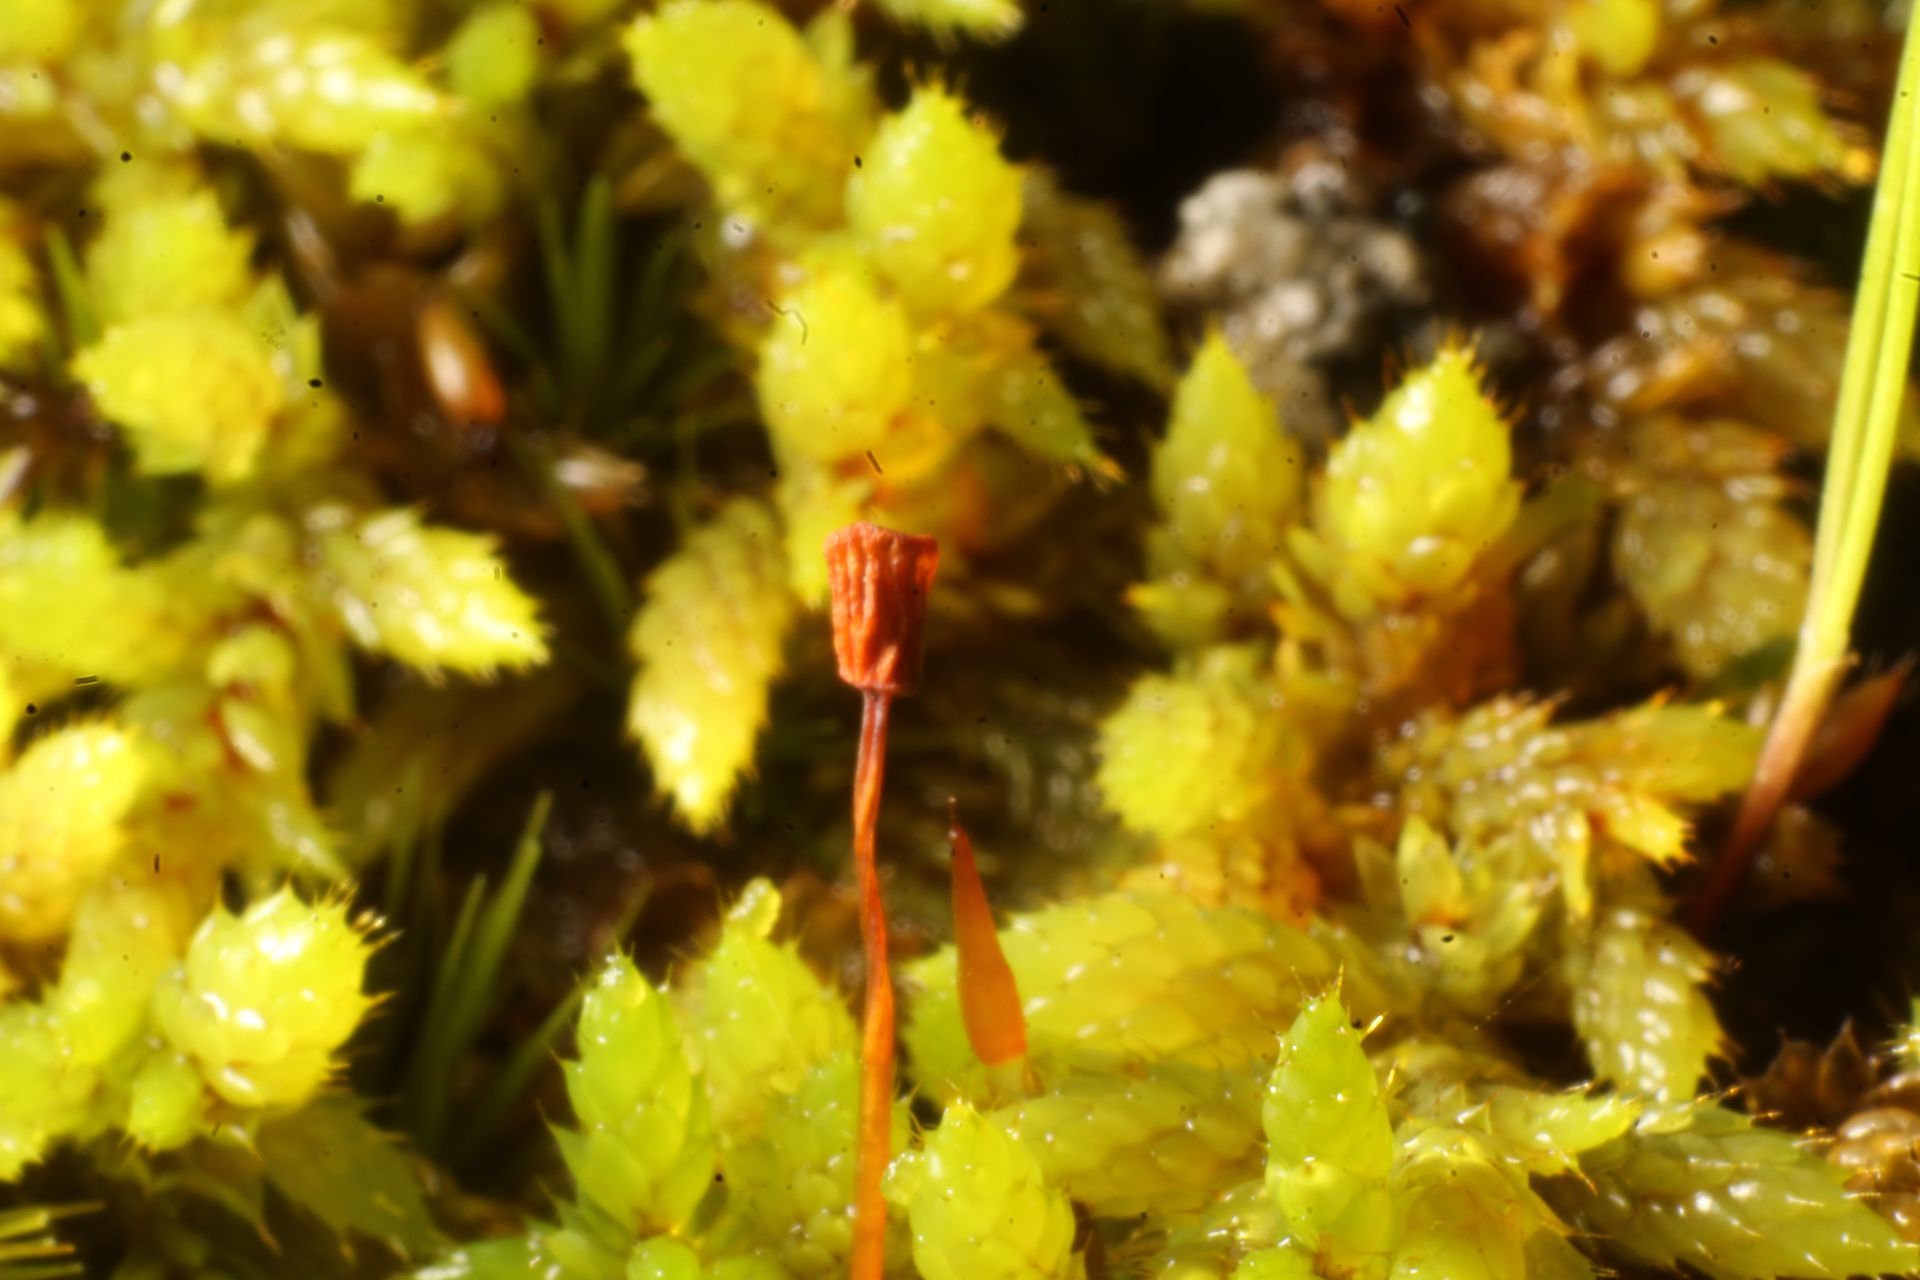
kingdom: Plantae
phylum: Bryophyta
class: Bryopsida
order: Hedwigiales
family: Hedwigiaceae
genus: Rhacocarpus
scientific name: Rhacocarpus purpurascens
